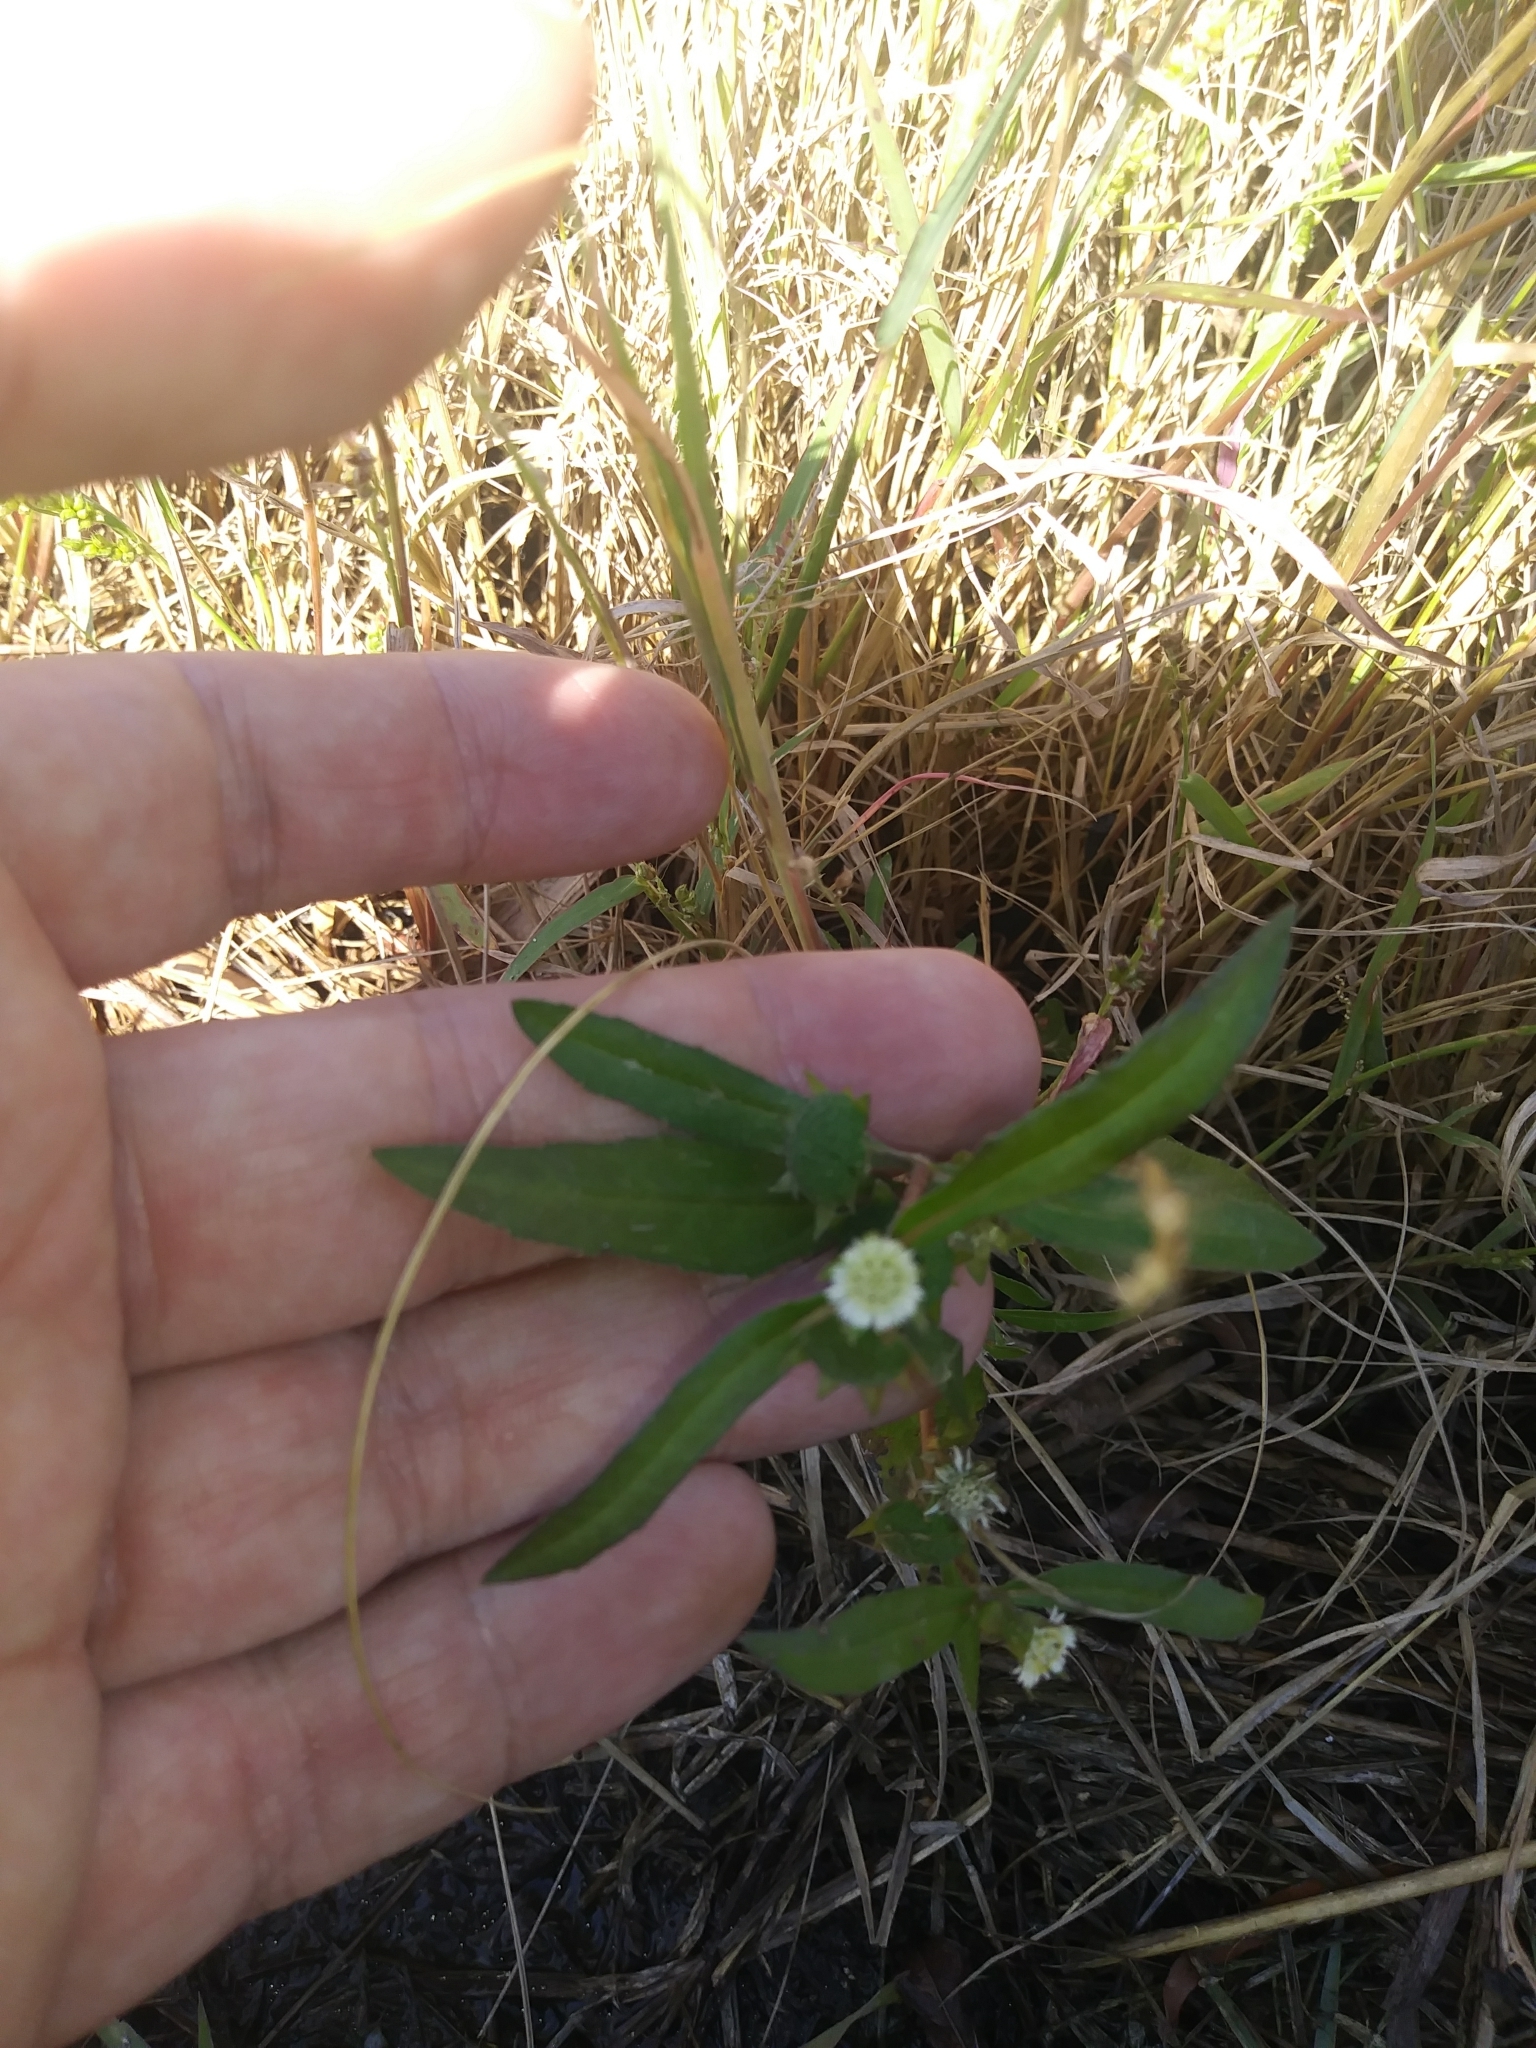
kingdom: Plantae
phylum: Tracheophyta
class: Magnoliopsida
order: Asterales
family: Asteraceae
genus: Eclipta
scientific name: Eclipta prostrata
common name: False daisy
